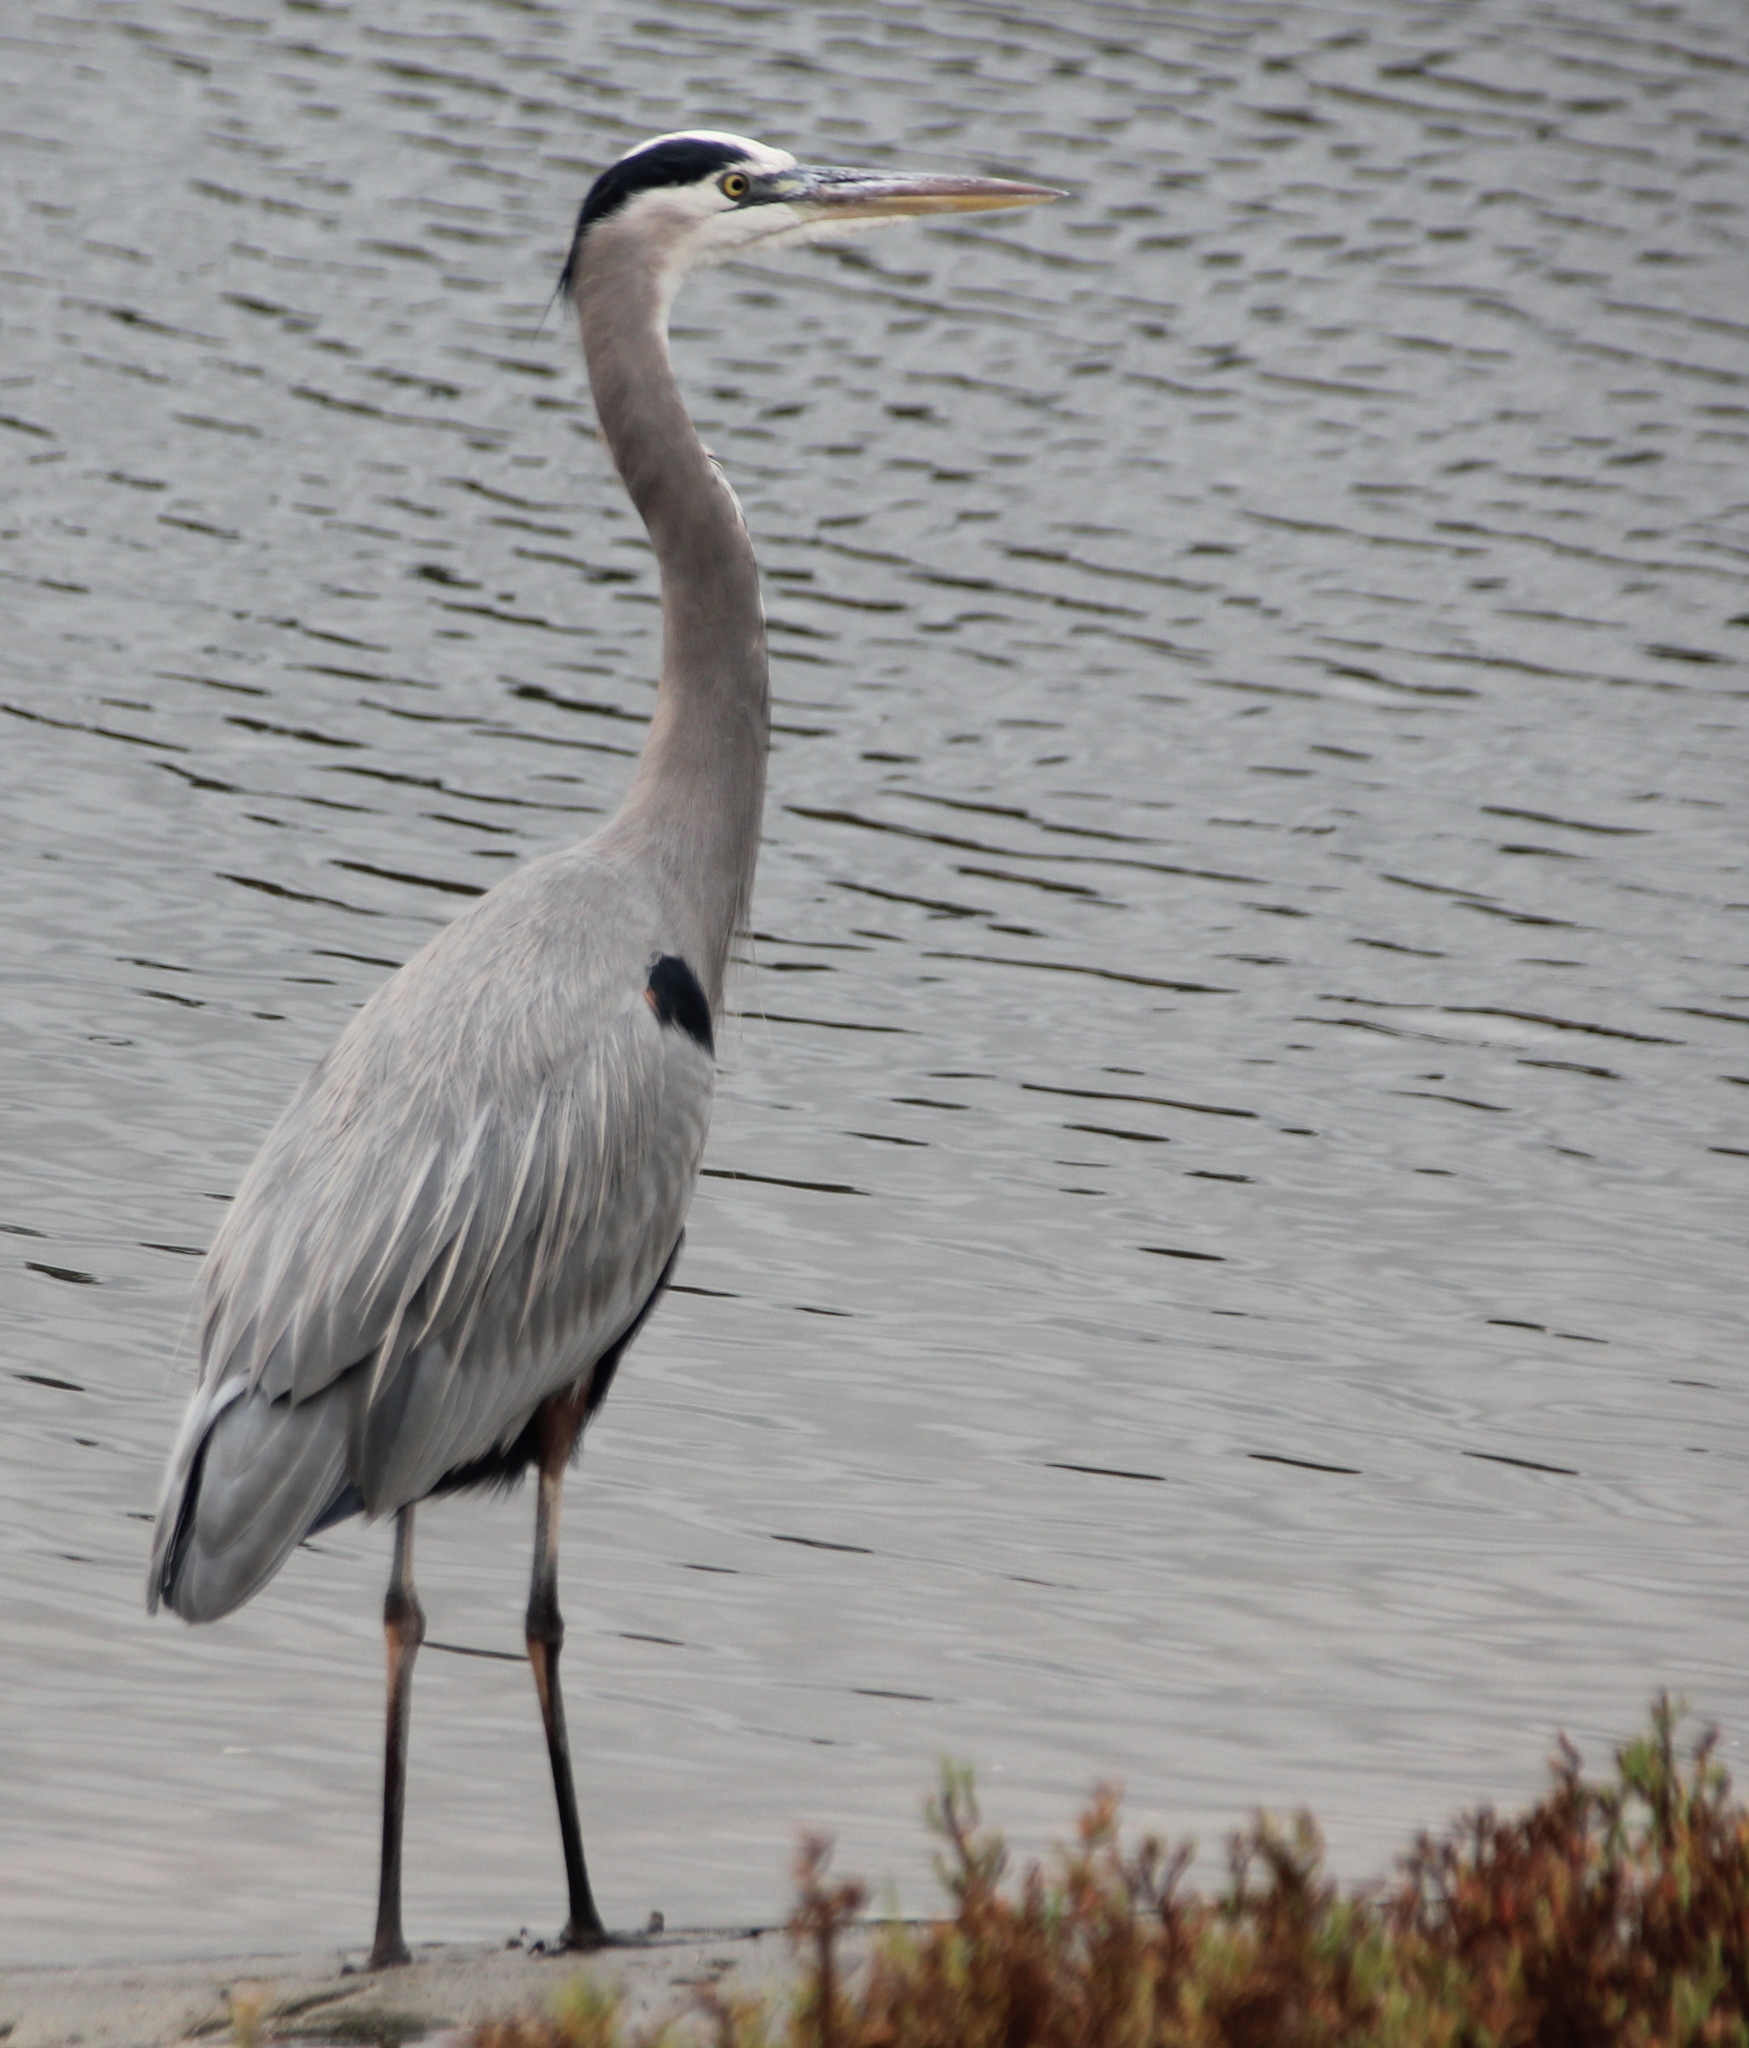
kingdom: Animalia
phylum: Chordata
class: Aves
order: Pelecaniformes
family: Ardeidae
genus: Ardea
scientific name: Ardea herodias
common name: Great blue heron
